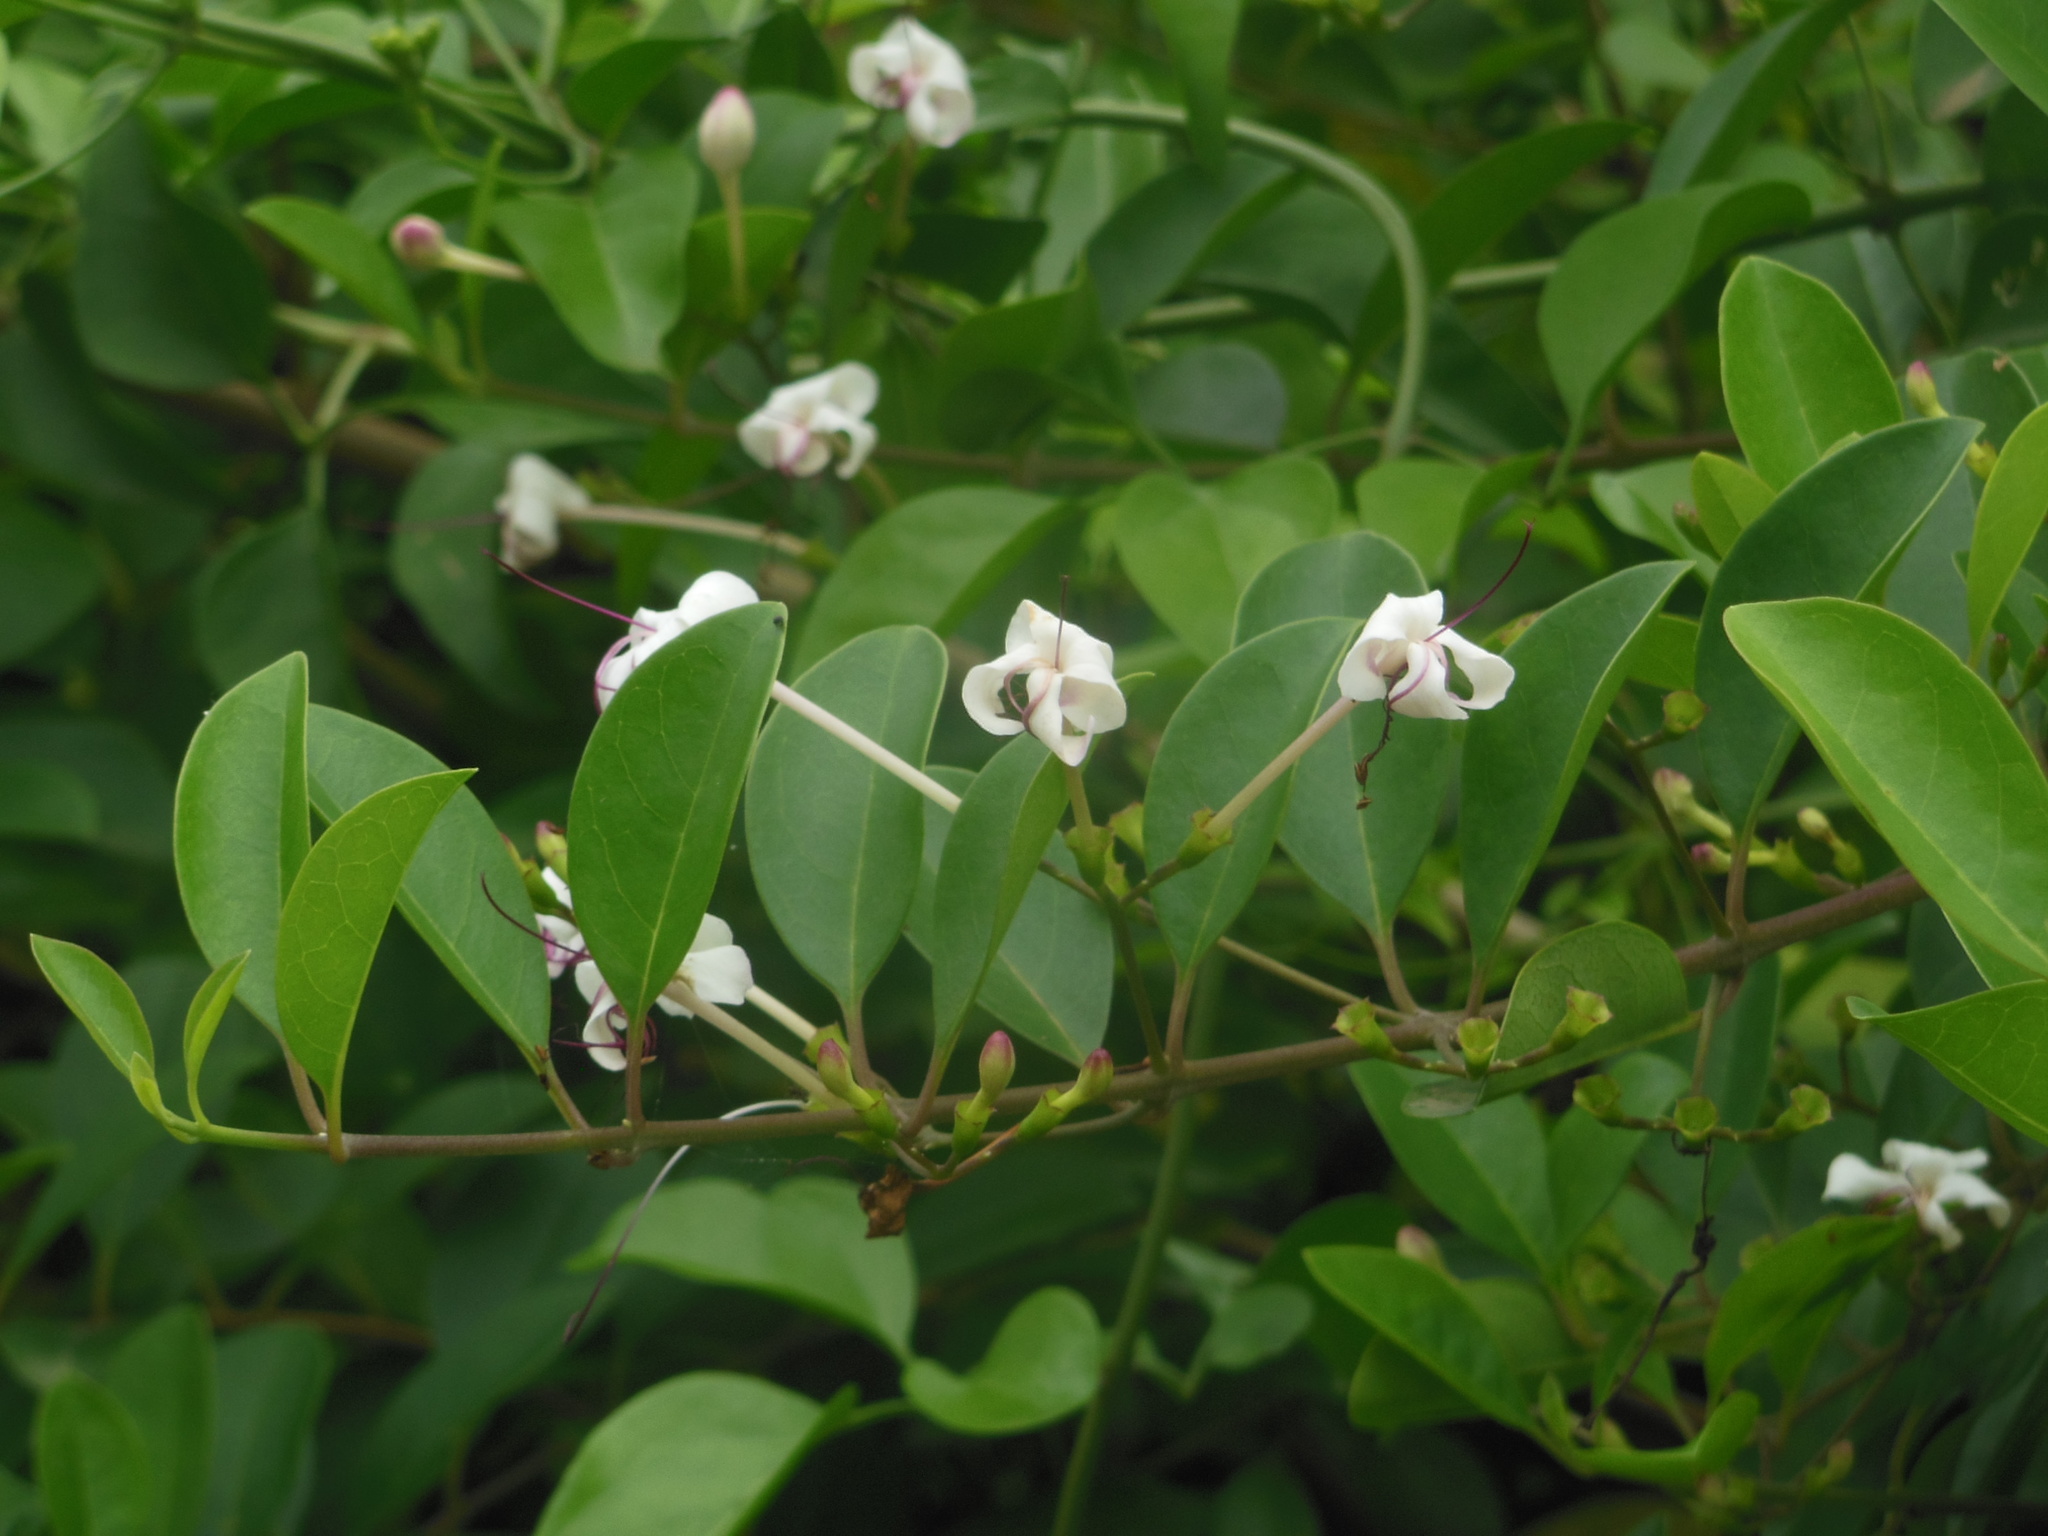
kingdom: Plantae
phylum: Tracheophyta
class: Magnoliopsida
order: Lamiales
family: Lamiaceae
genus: Volkameria
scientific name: Volkameria inermis
